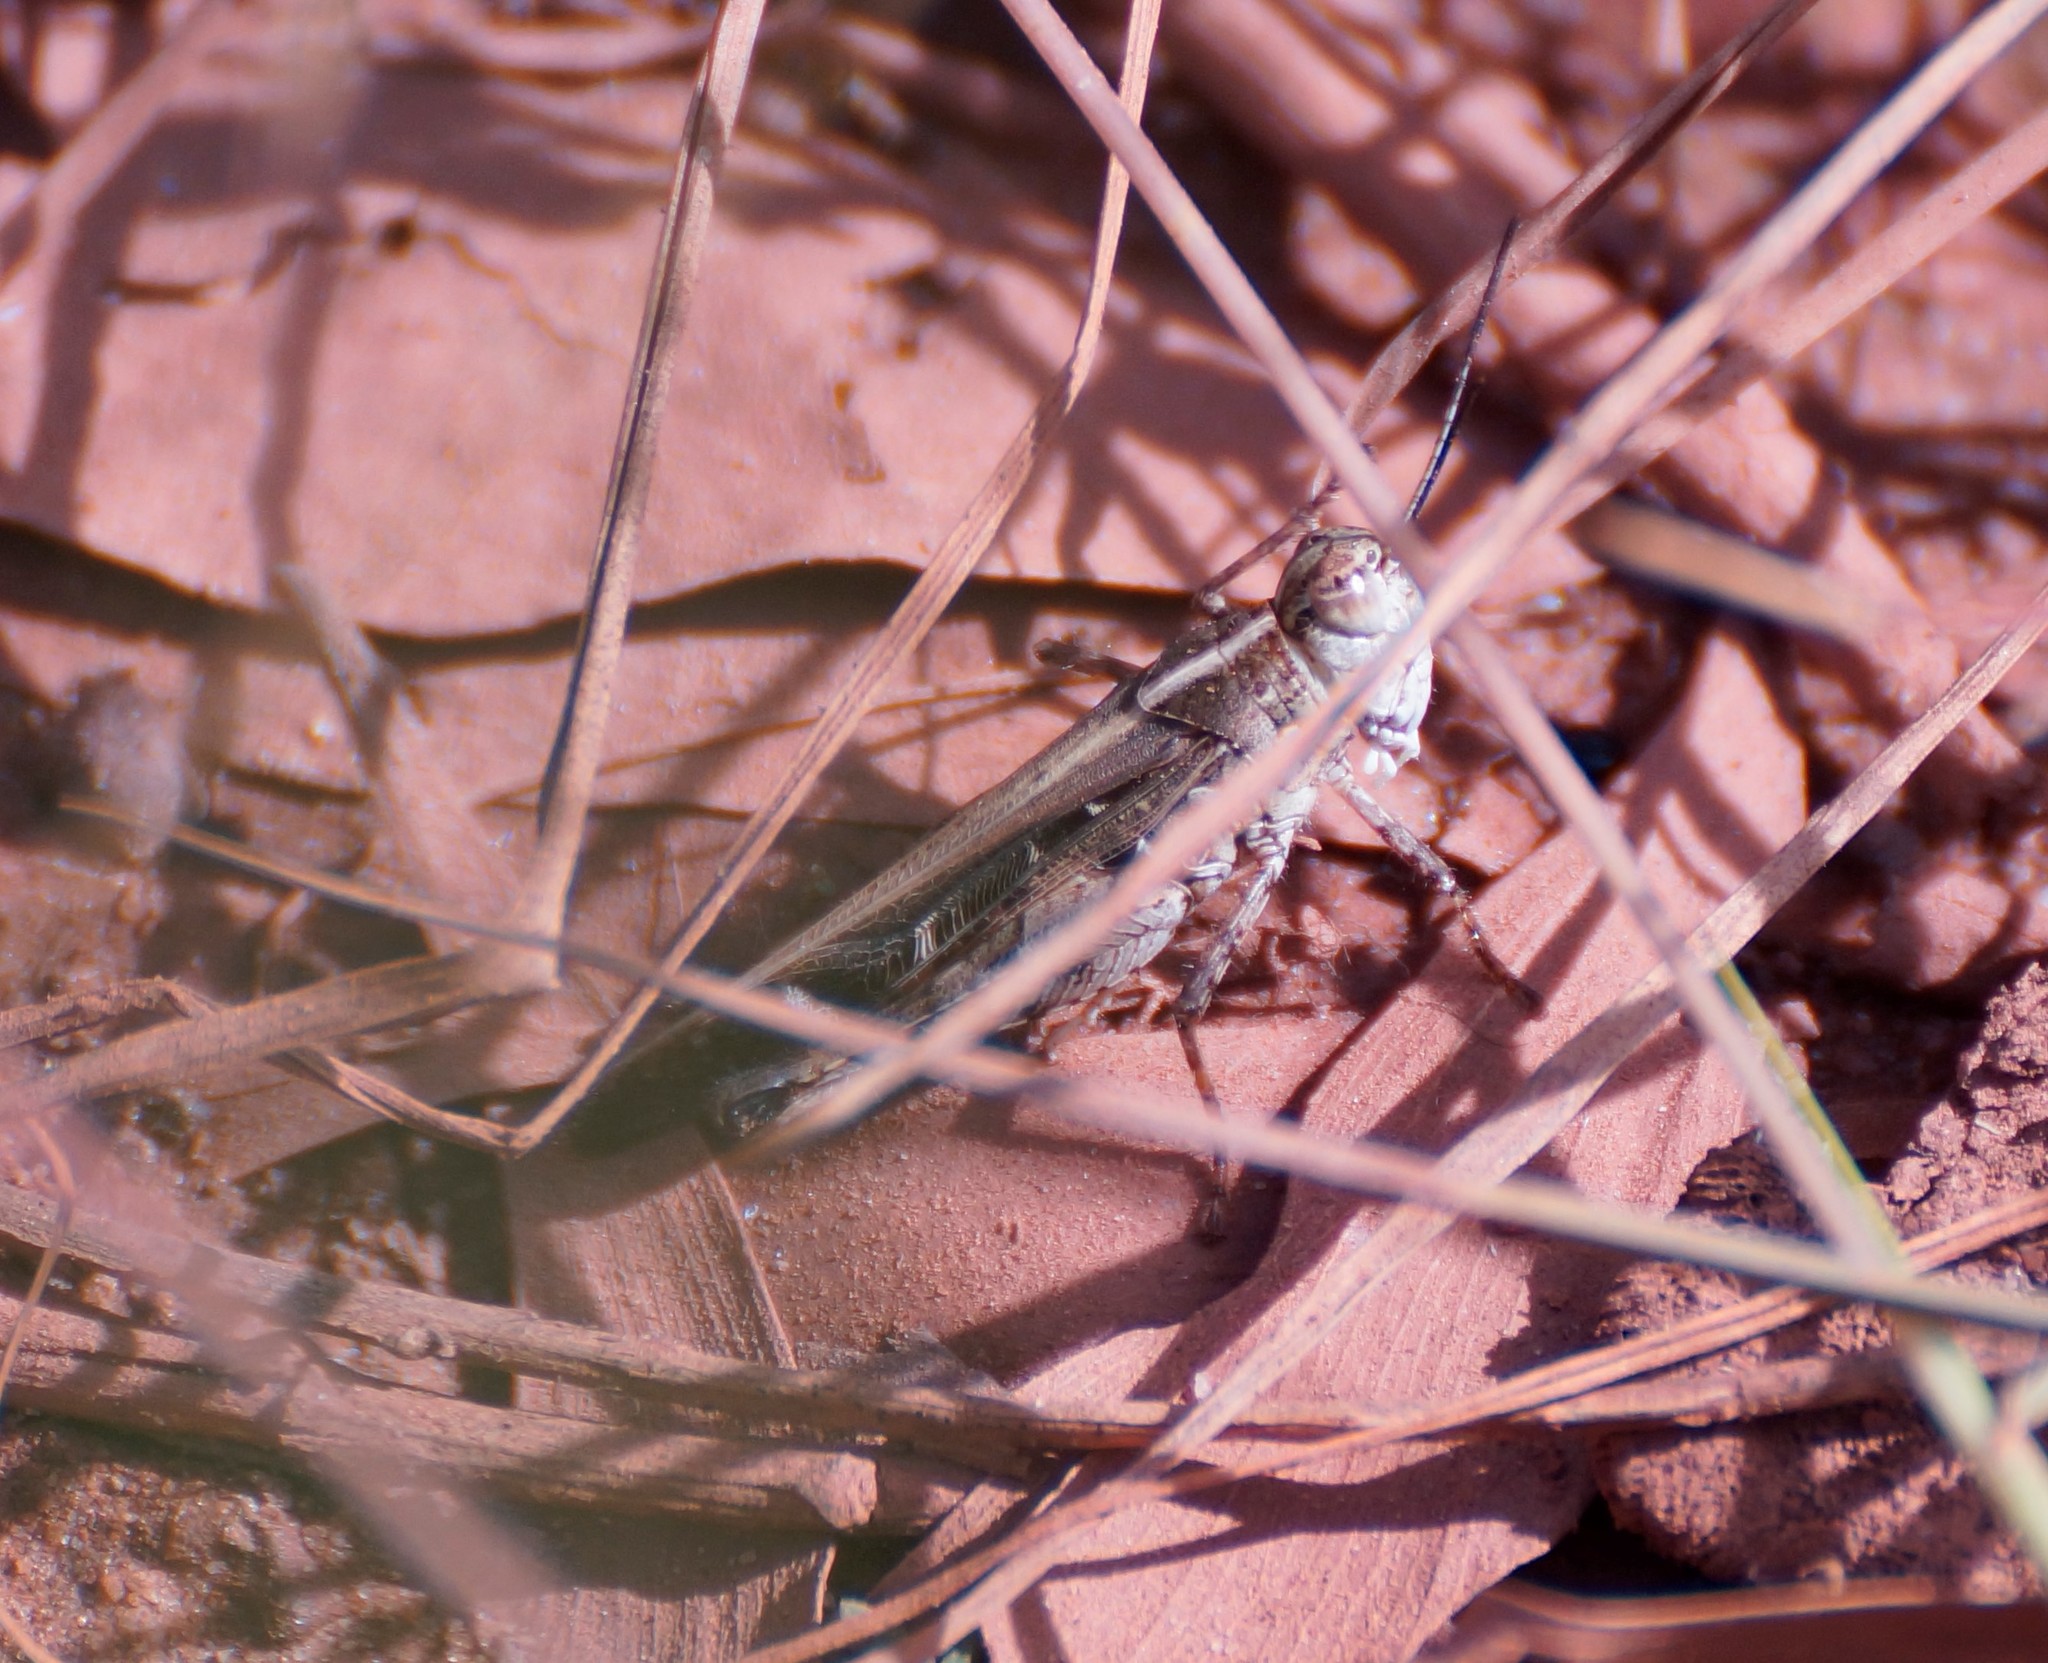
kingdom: Animalia
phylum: Arthropoda
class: Insecta
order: Orthoptera
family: Acrididae
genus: Heteropternis
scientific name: Heteropternis obscurella
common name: Long-legged bandwing
